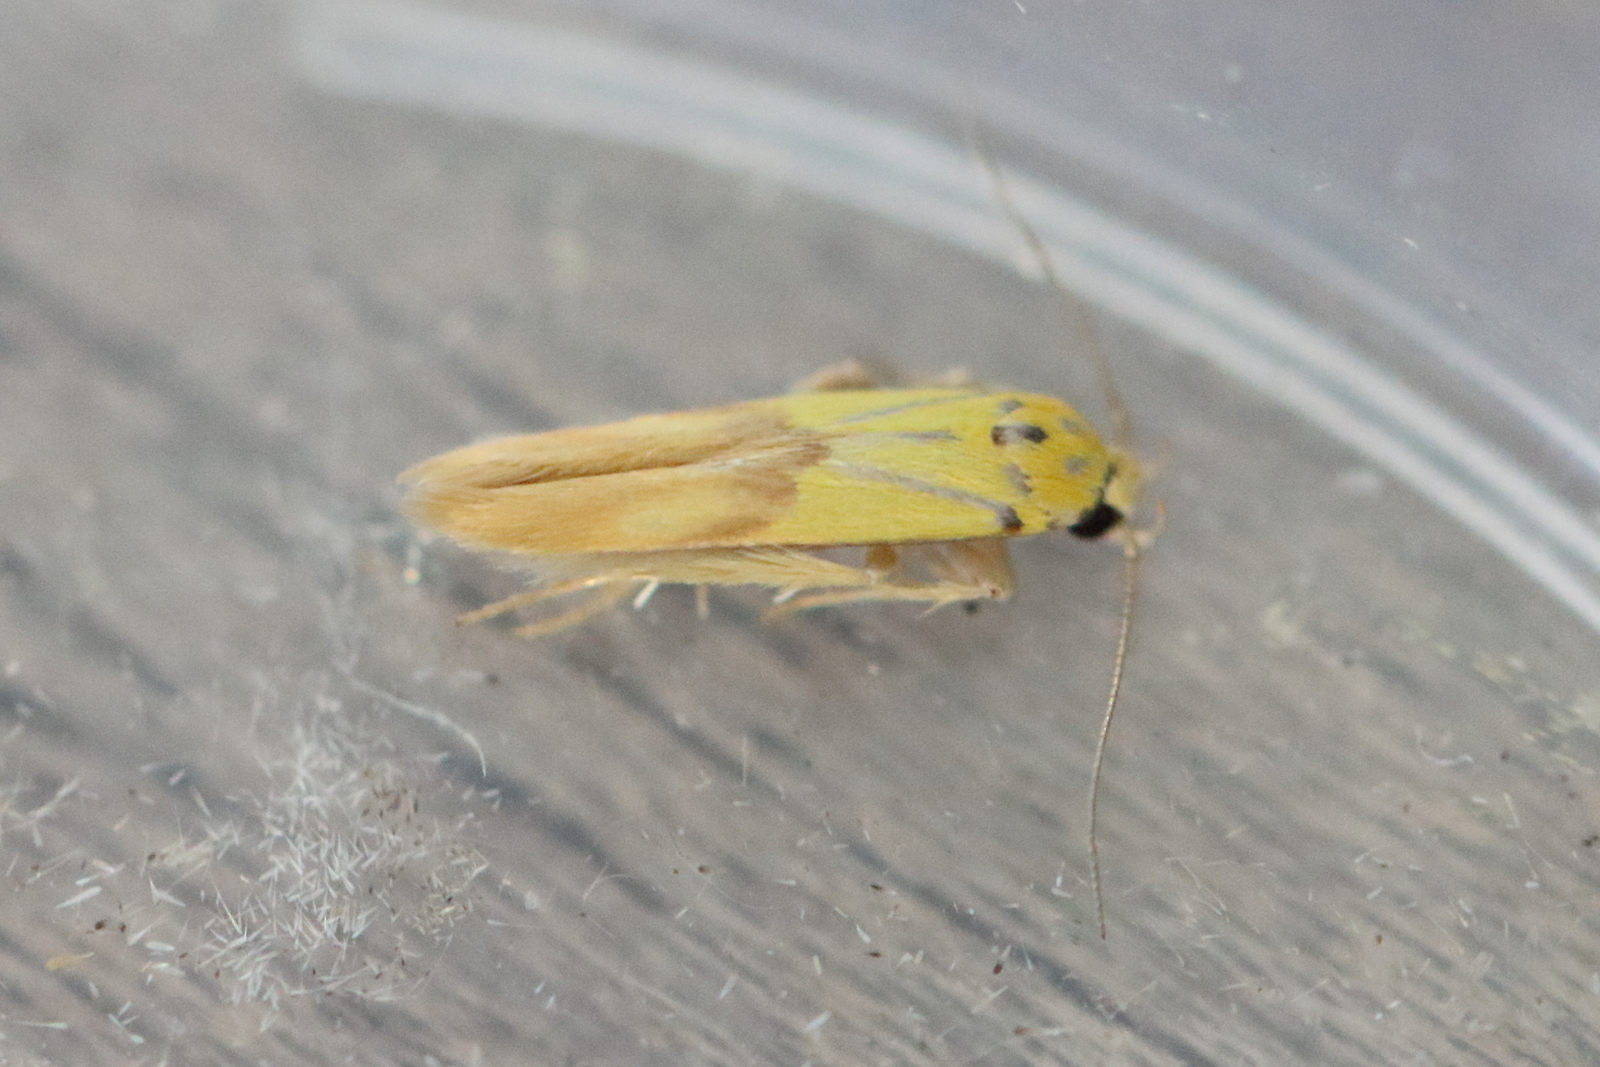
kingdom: Animalia
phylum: Arthropoda
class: Insecta
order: Lepidoptera
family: Stathmopodidae
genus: Stathmopoda
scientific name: Stathmopoda auriferella
